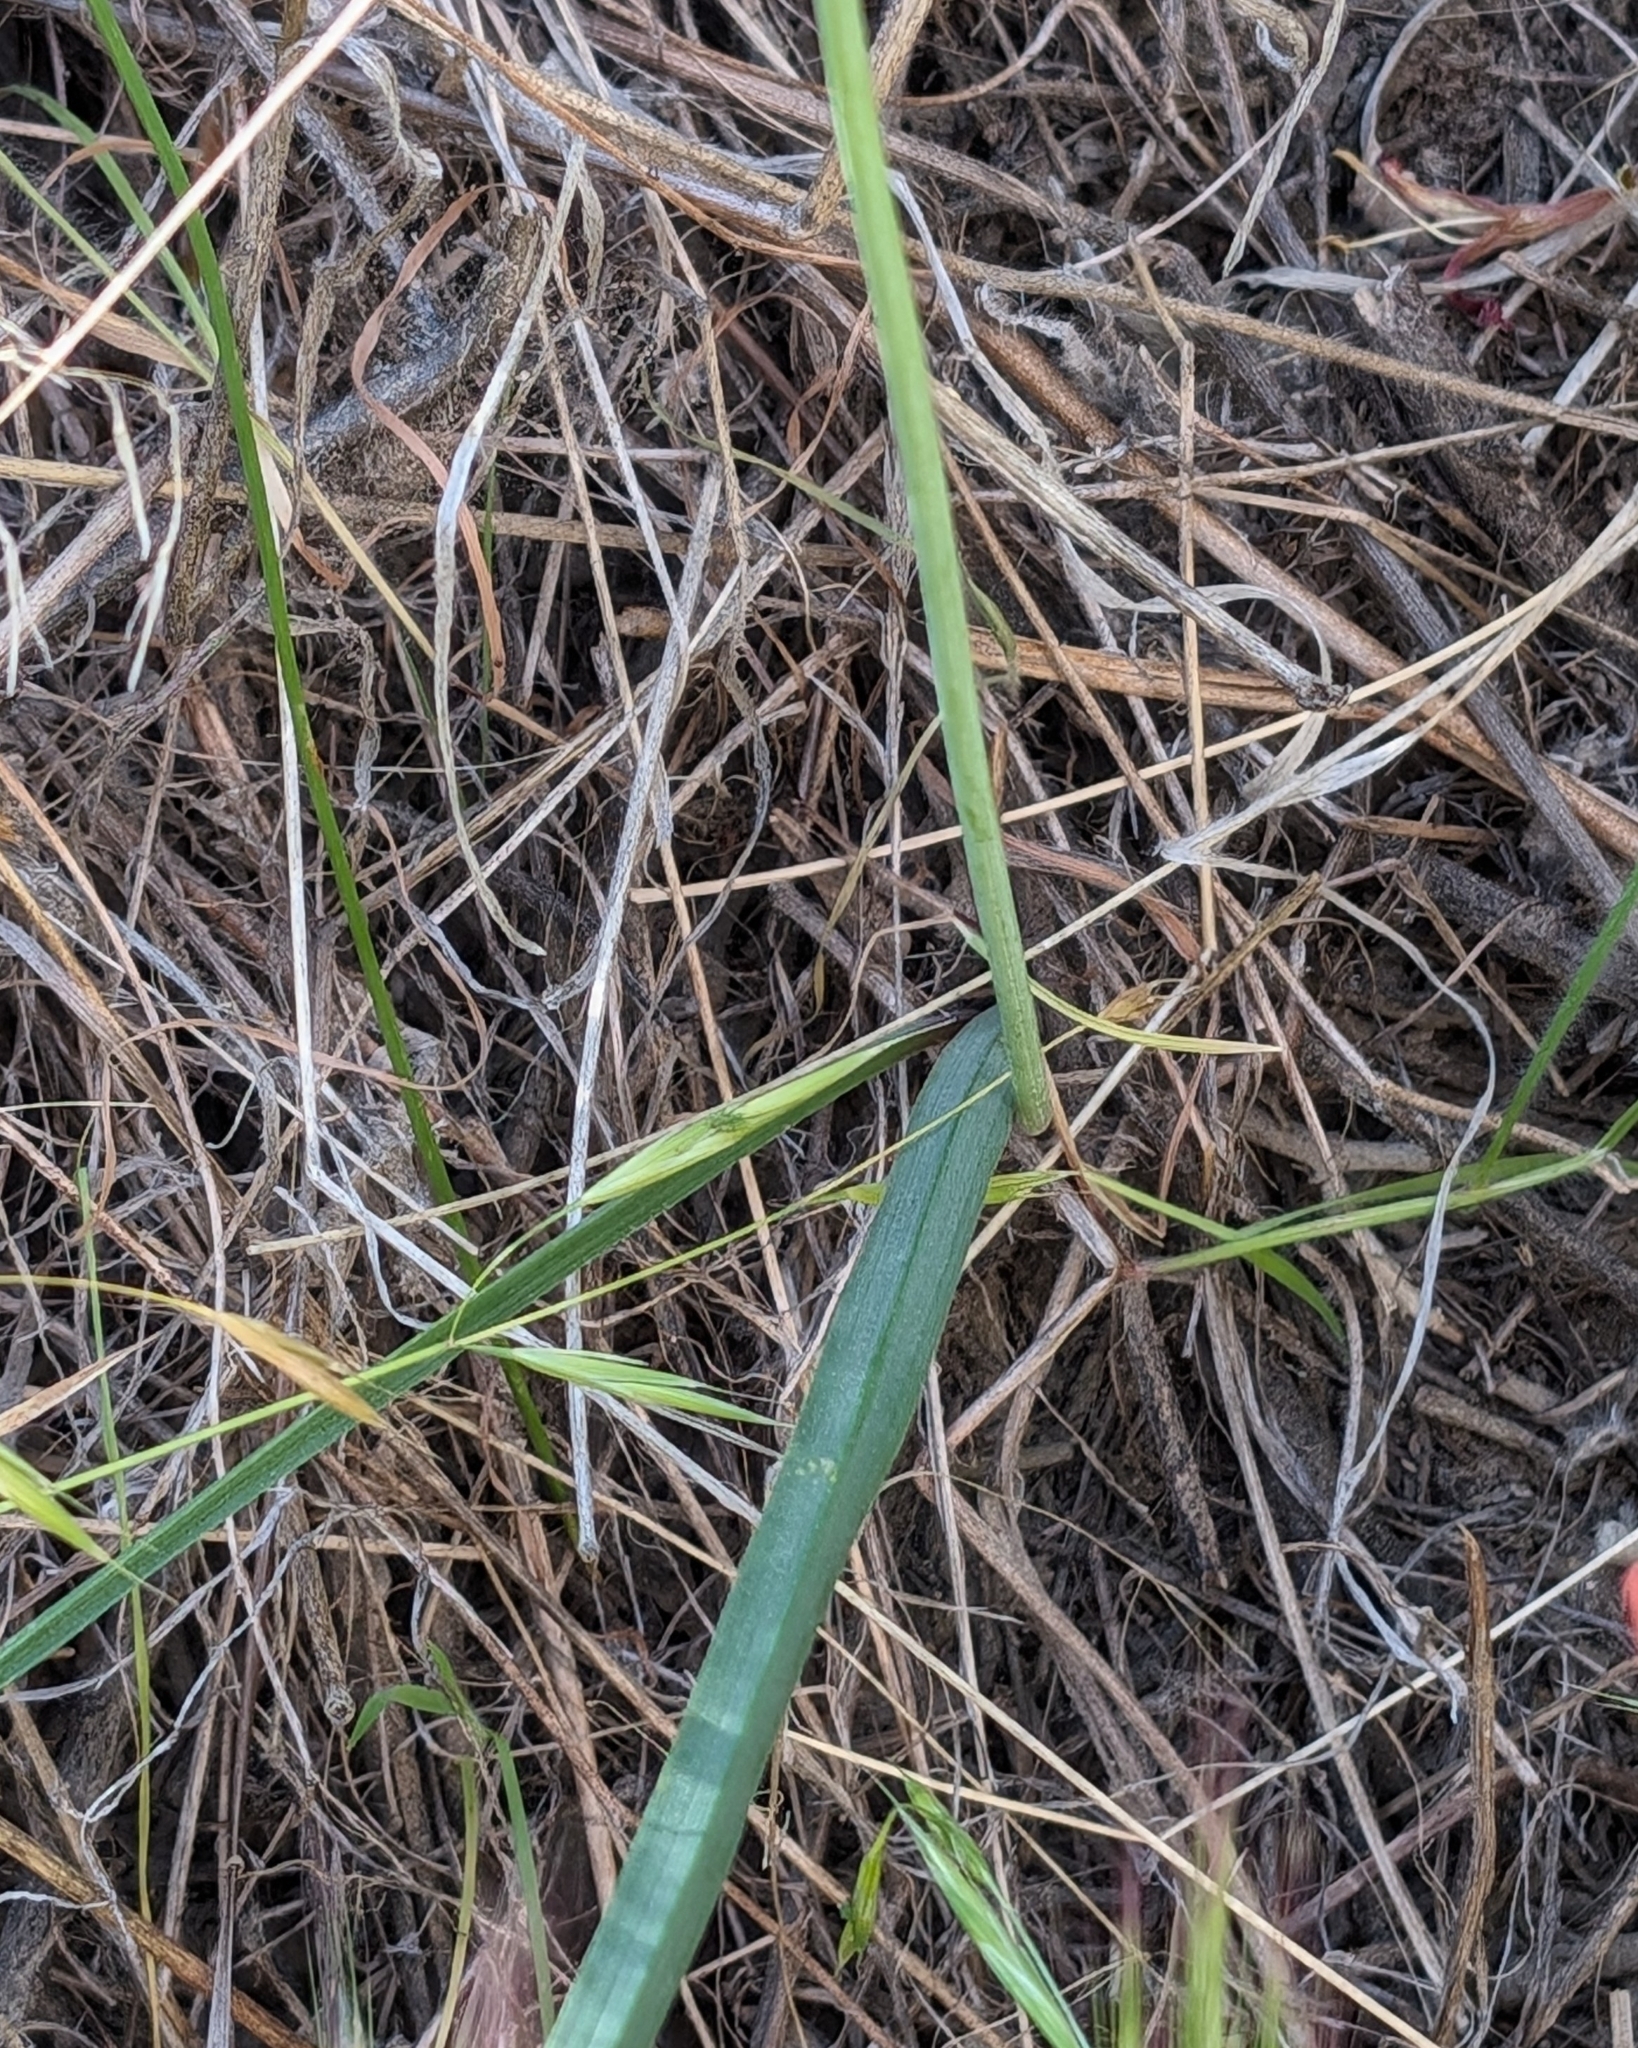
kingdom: Plantae
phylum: Tracheophyta
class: Liliopsida
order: Asparagales
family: Asparagaceae
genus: Dipterostemon
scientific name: Dipterostemon capitatus
